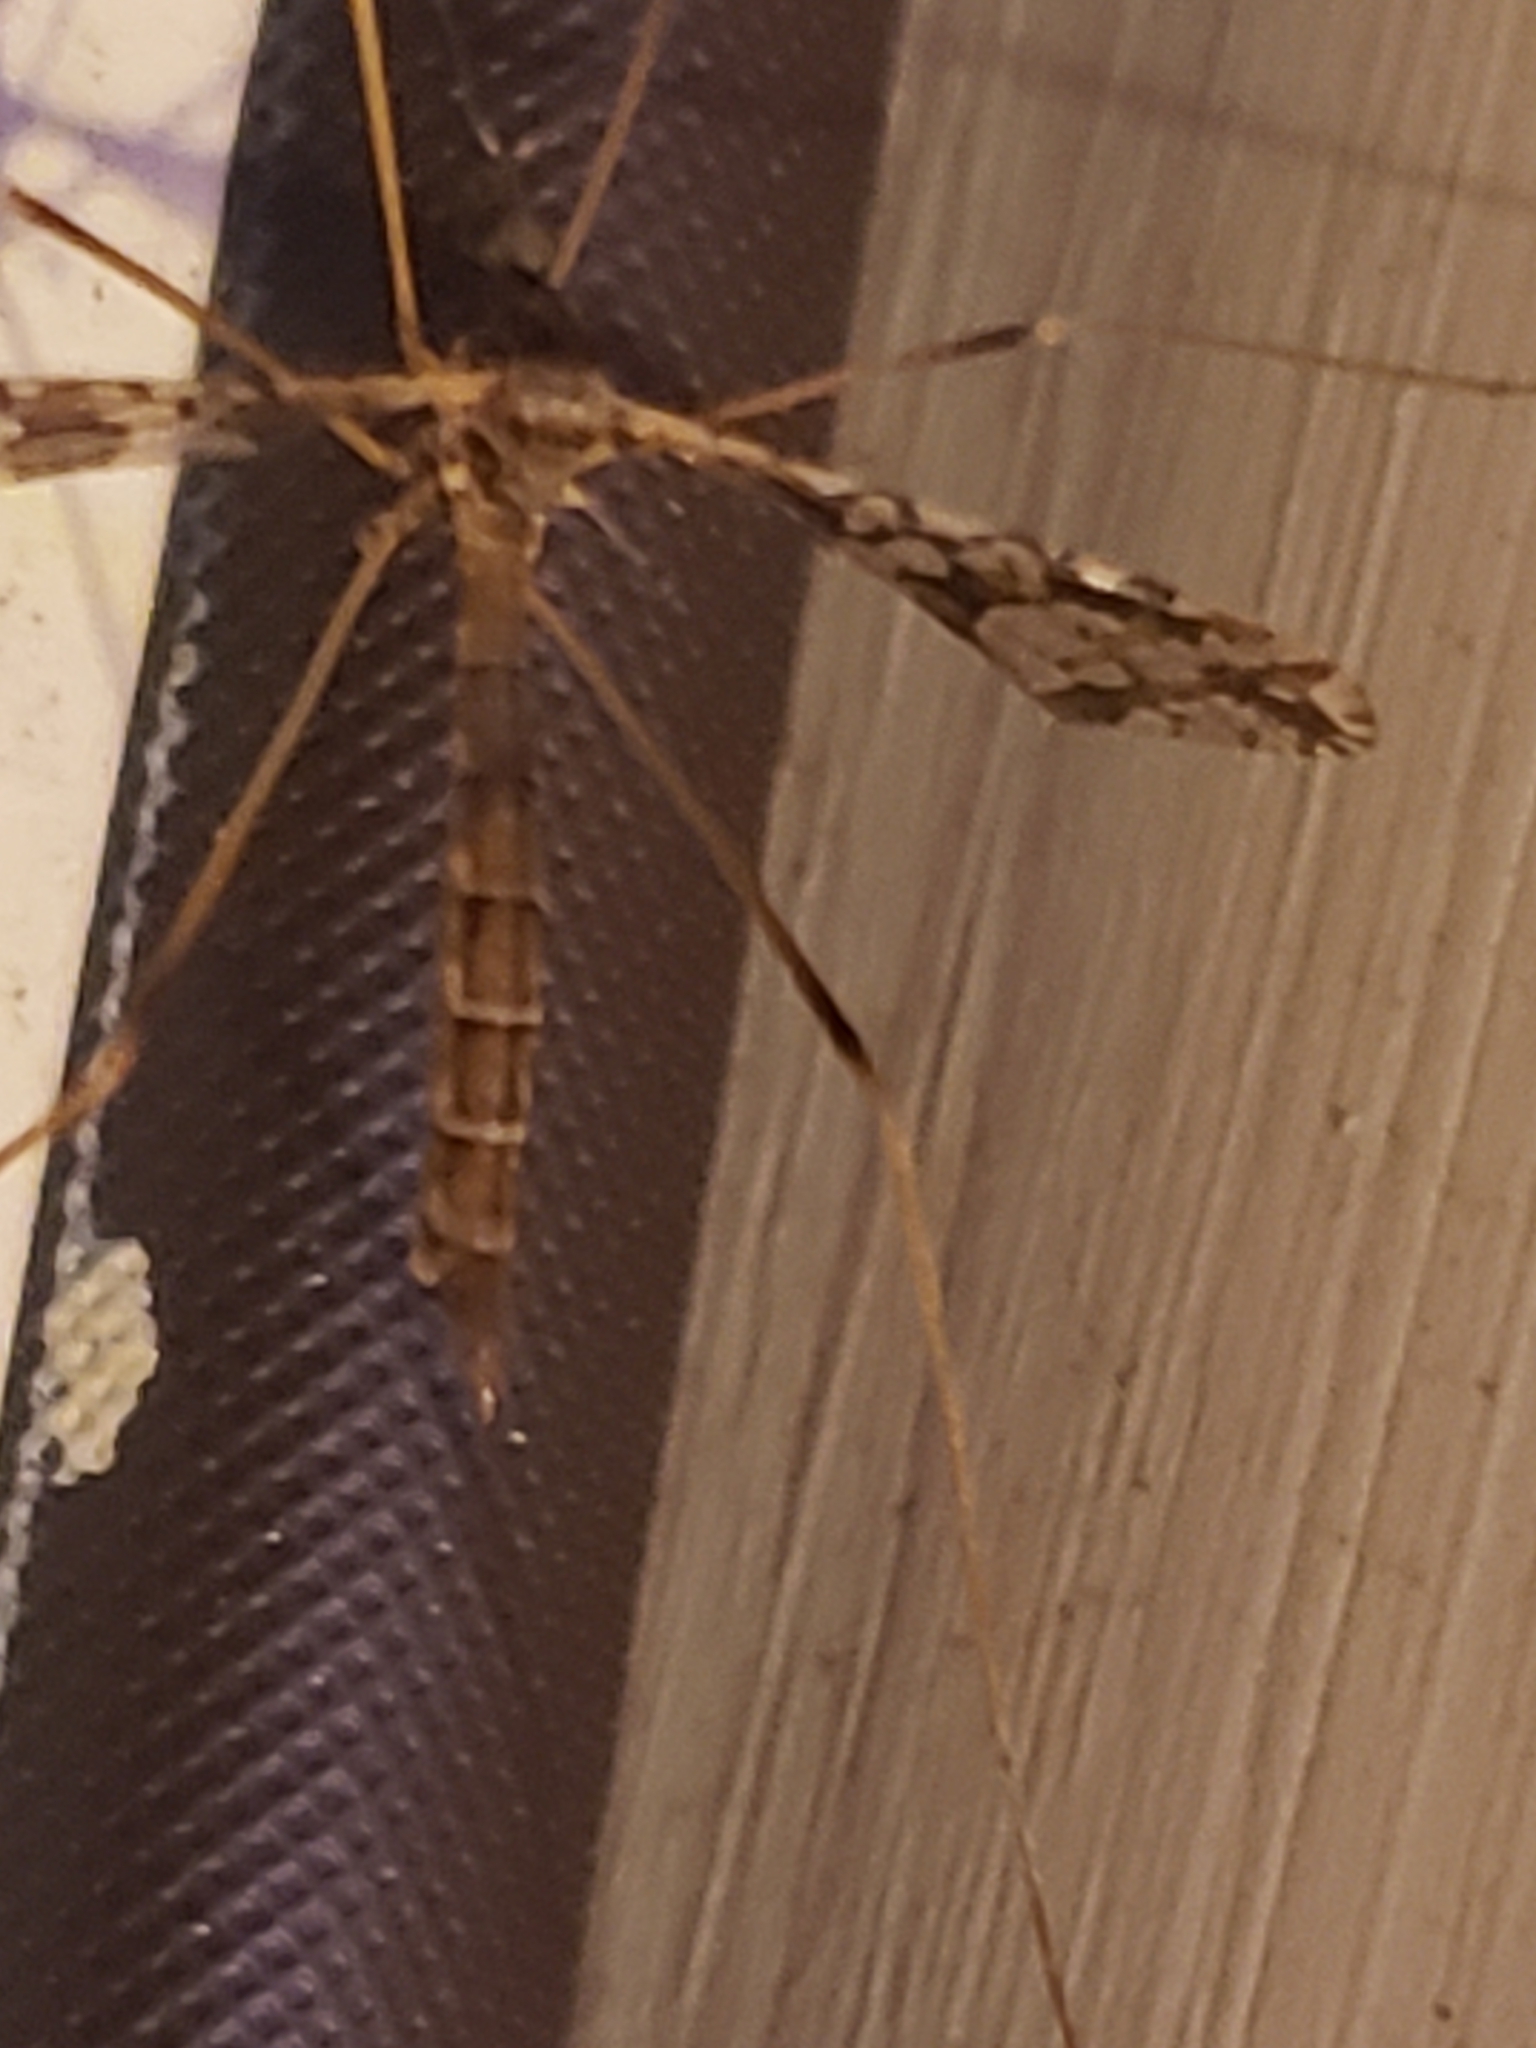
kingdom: Animalia
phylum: Arthropoda
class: Insecta
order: Diptera
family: Limoniidae
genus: Epiphragma
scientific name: Epiphragma solatrix
